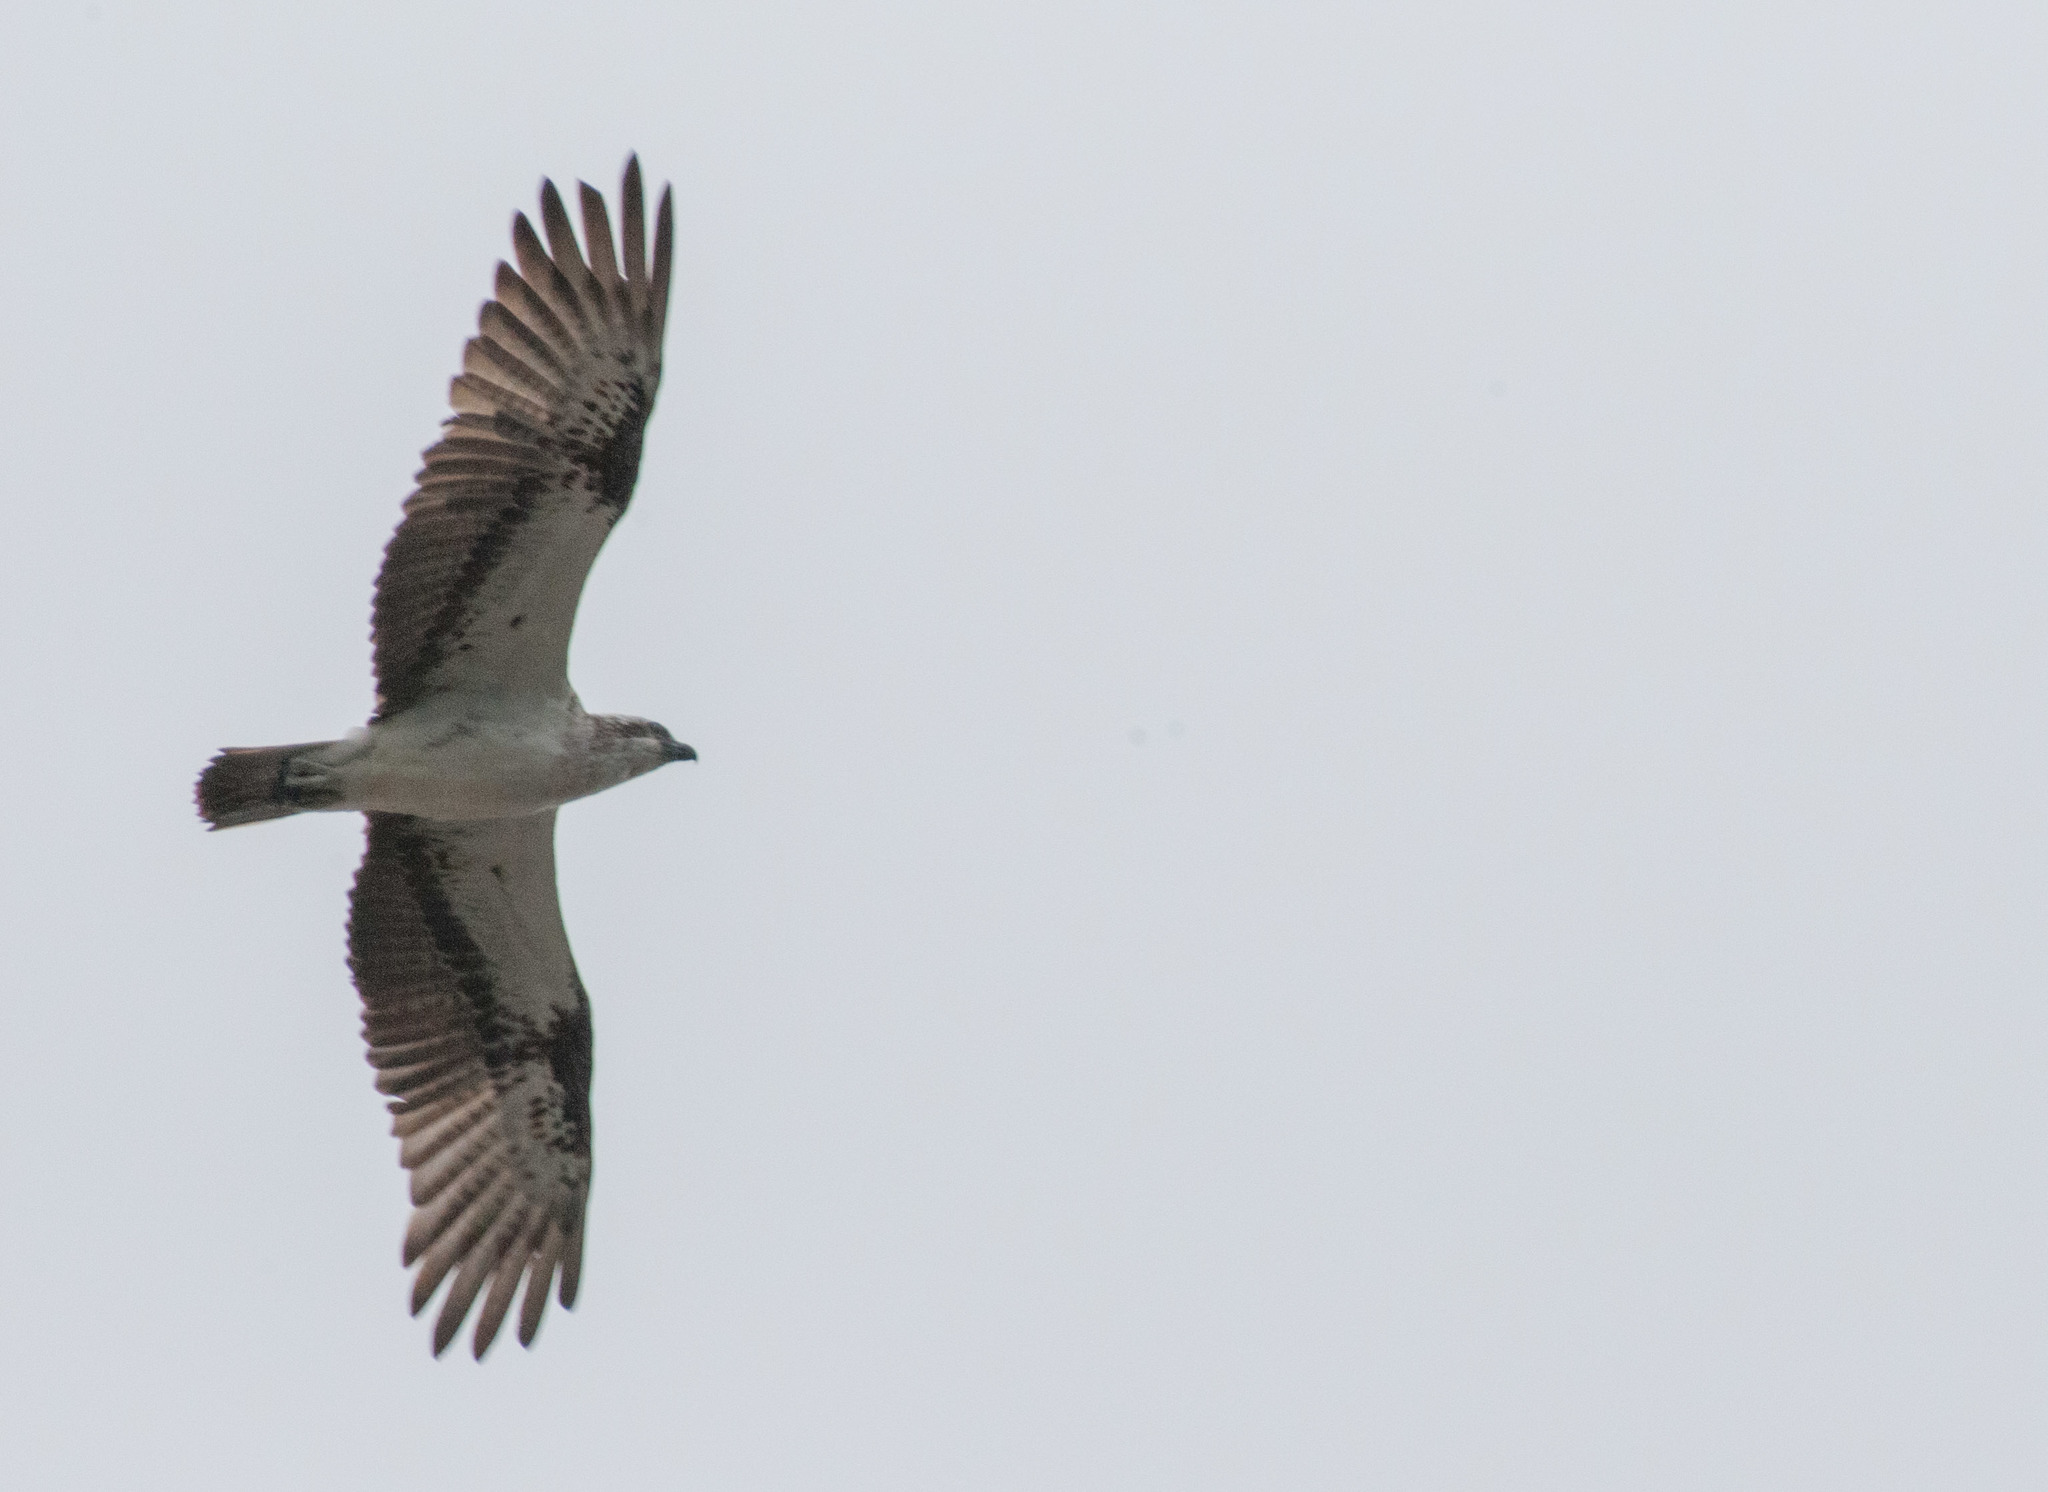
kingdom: Animalia
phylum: Chordata
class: Aves
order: Accipitriformes
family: Pandionidae
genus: Pandion
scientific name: Pandion haliaetus
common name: Osprey
